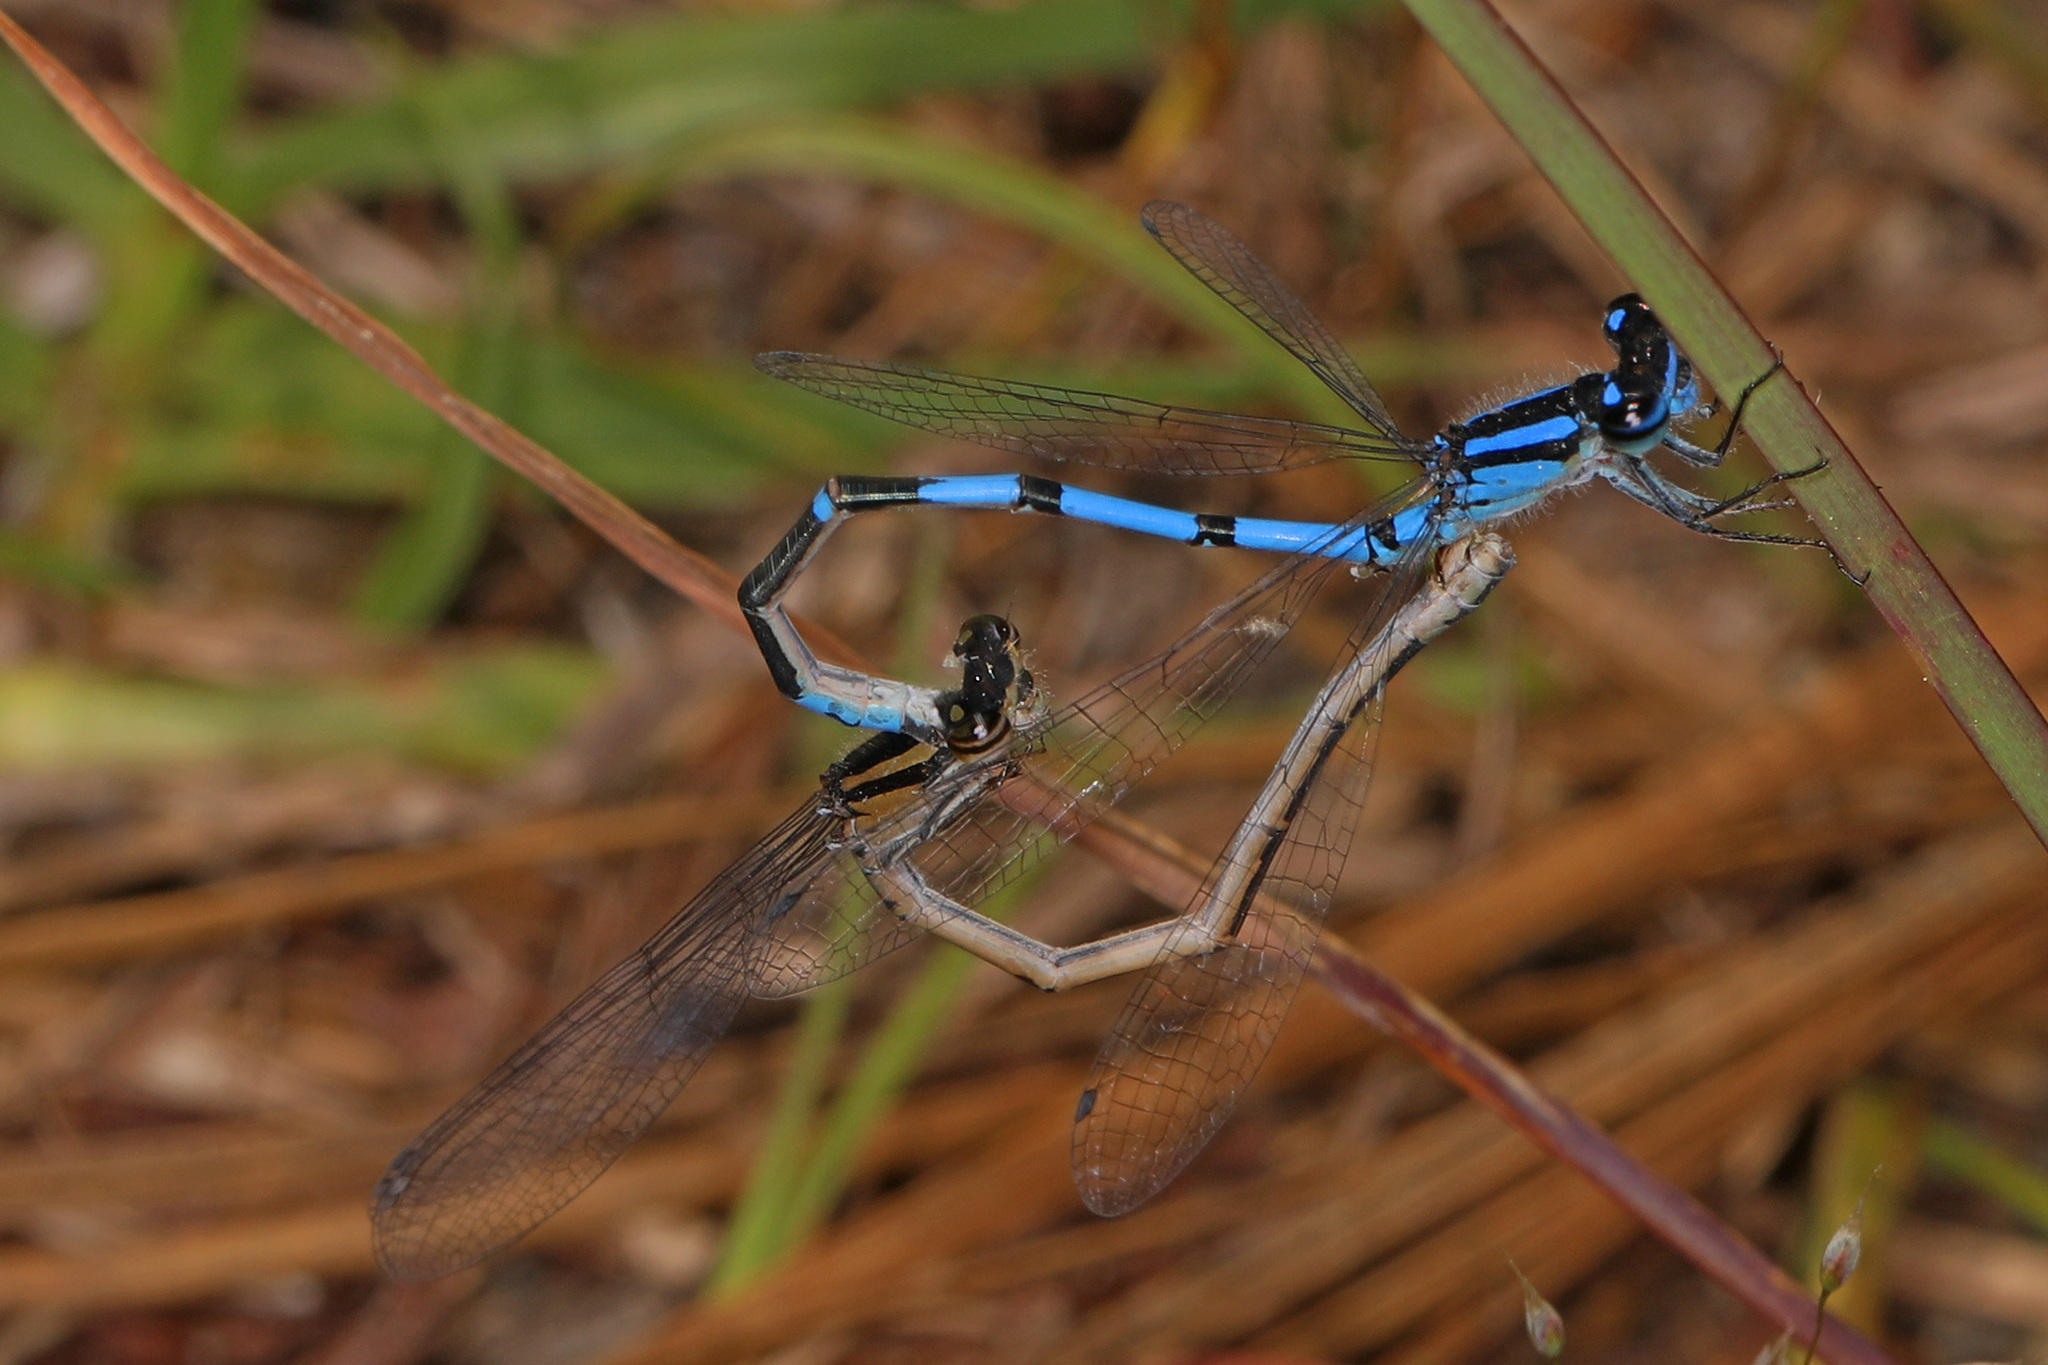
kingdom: Animalia
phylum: Arthropoda
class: Insecta
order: Odonata
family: Coenagrionidae
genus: Enallagma
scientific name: Enallagma davisi
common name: Sandhill bluet
